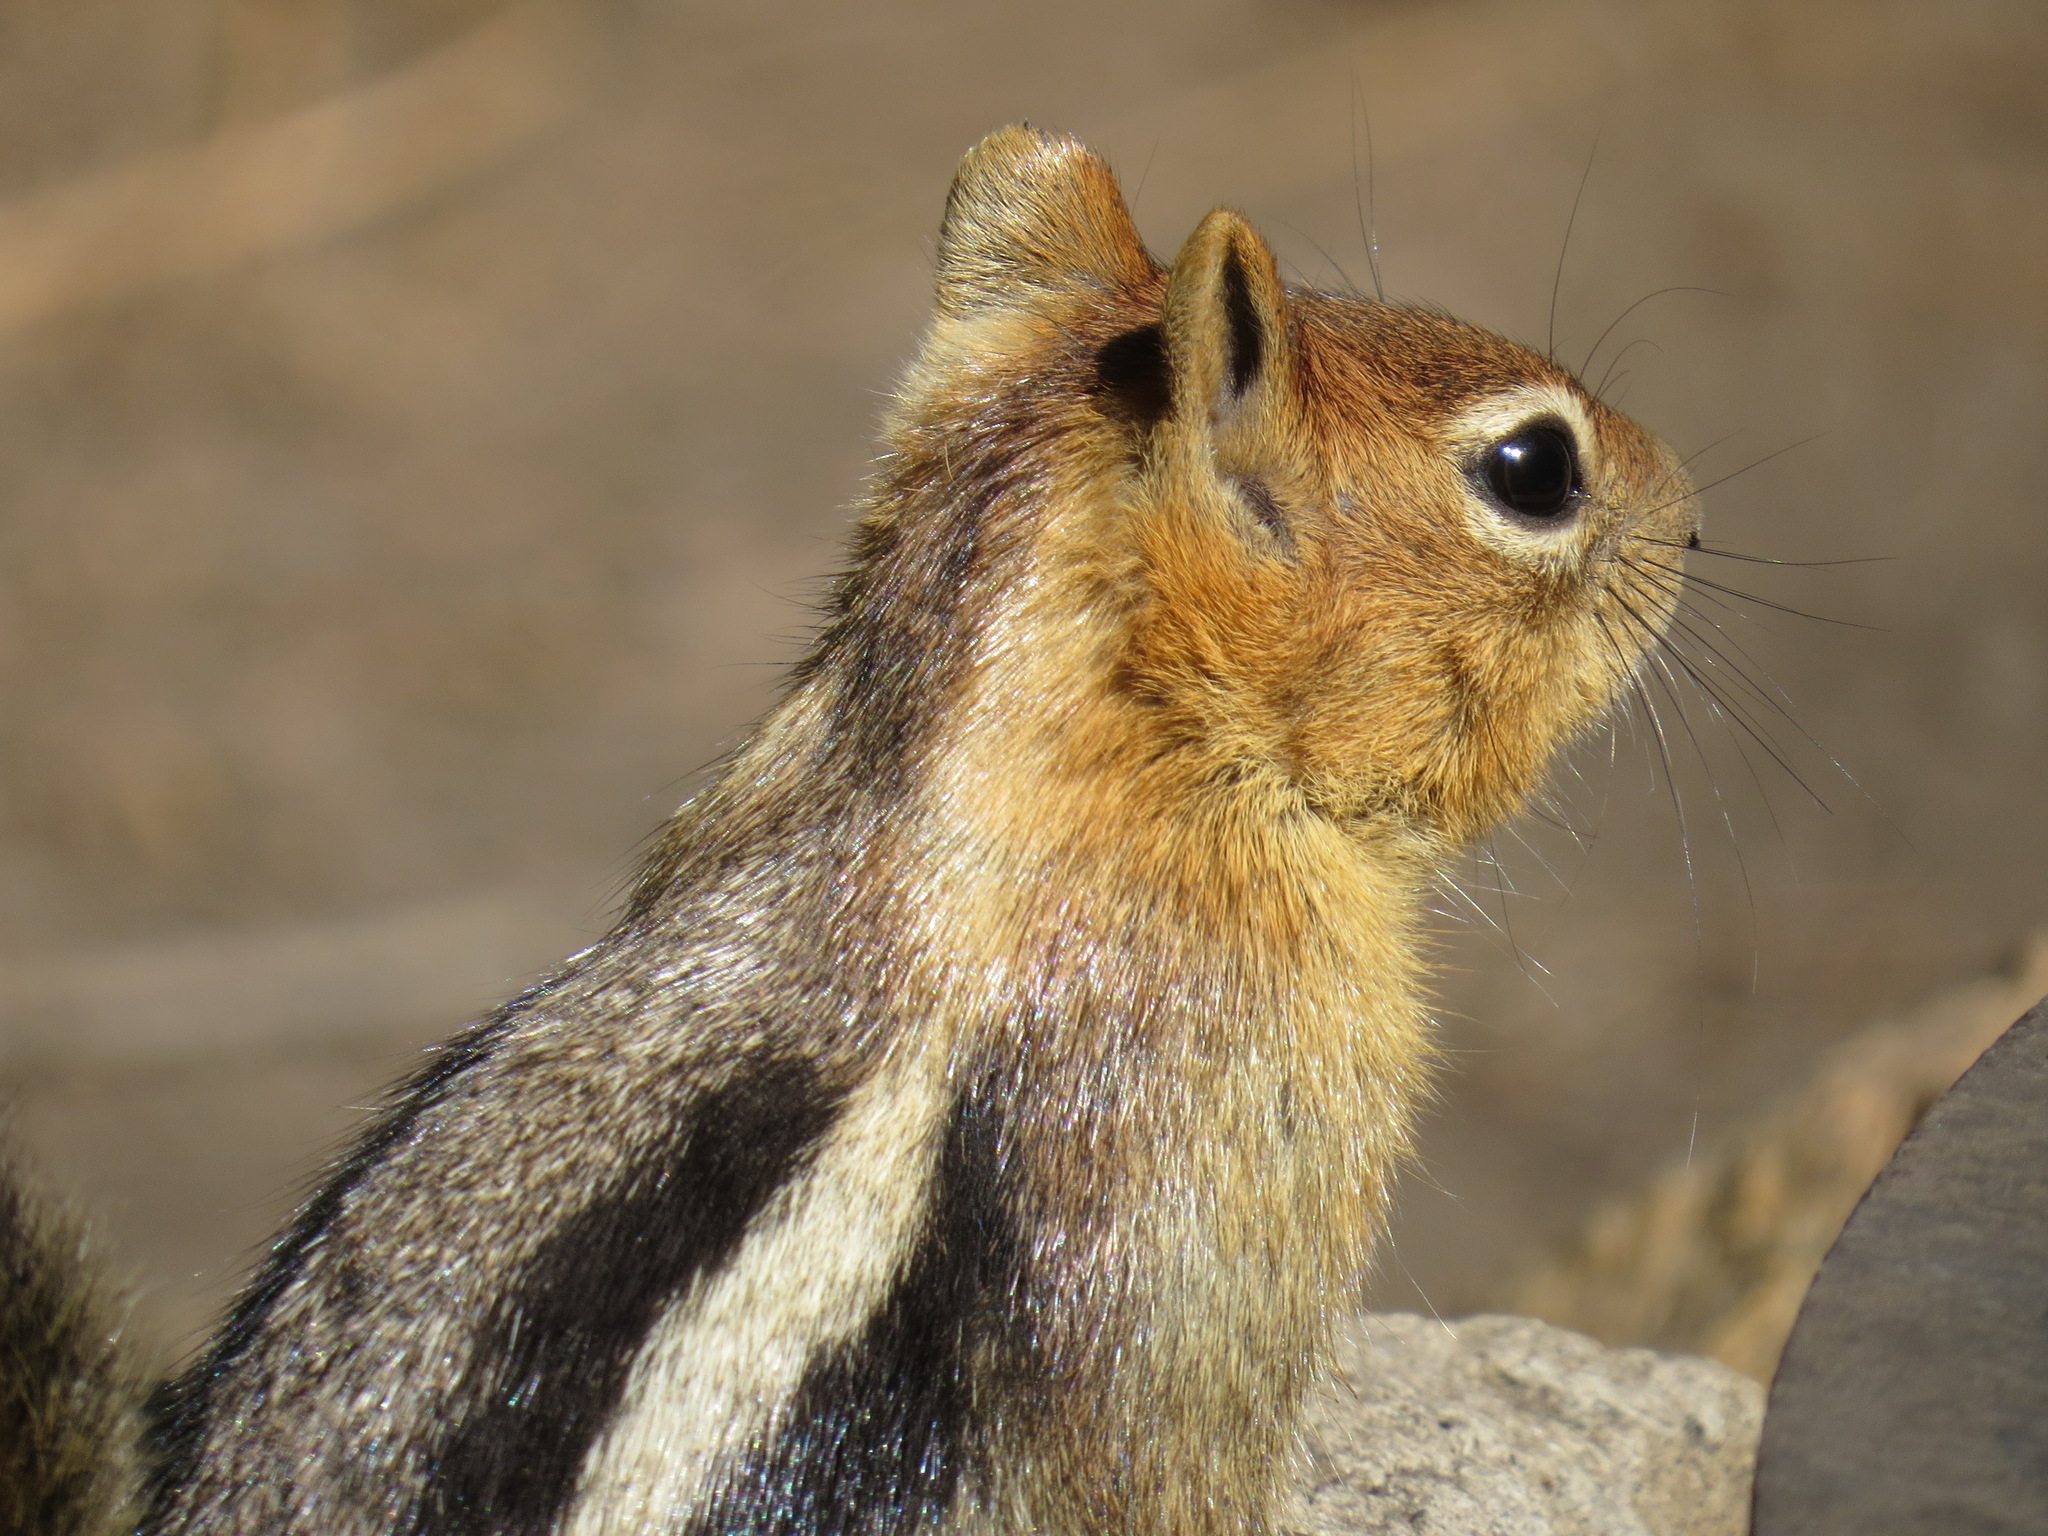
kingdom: Animalia
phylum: Chordata
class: Mammalia
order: Rodentia
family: Sciuridae
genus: Callospermophilus
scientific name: Callospermophilus lateralis
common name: Golden-mantled ground squirrel
